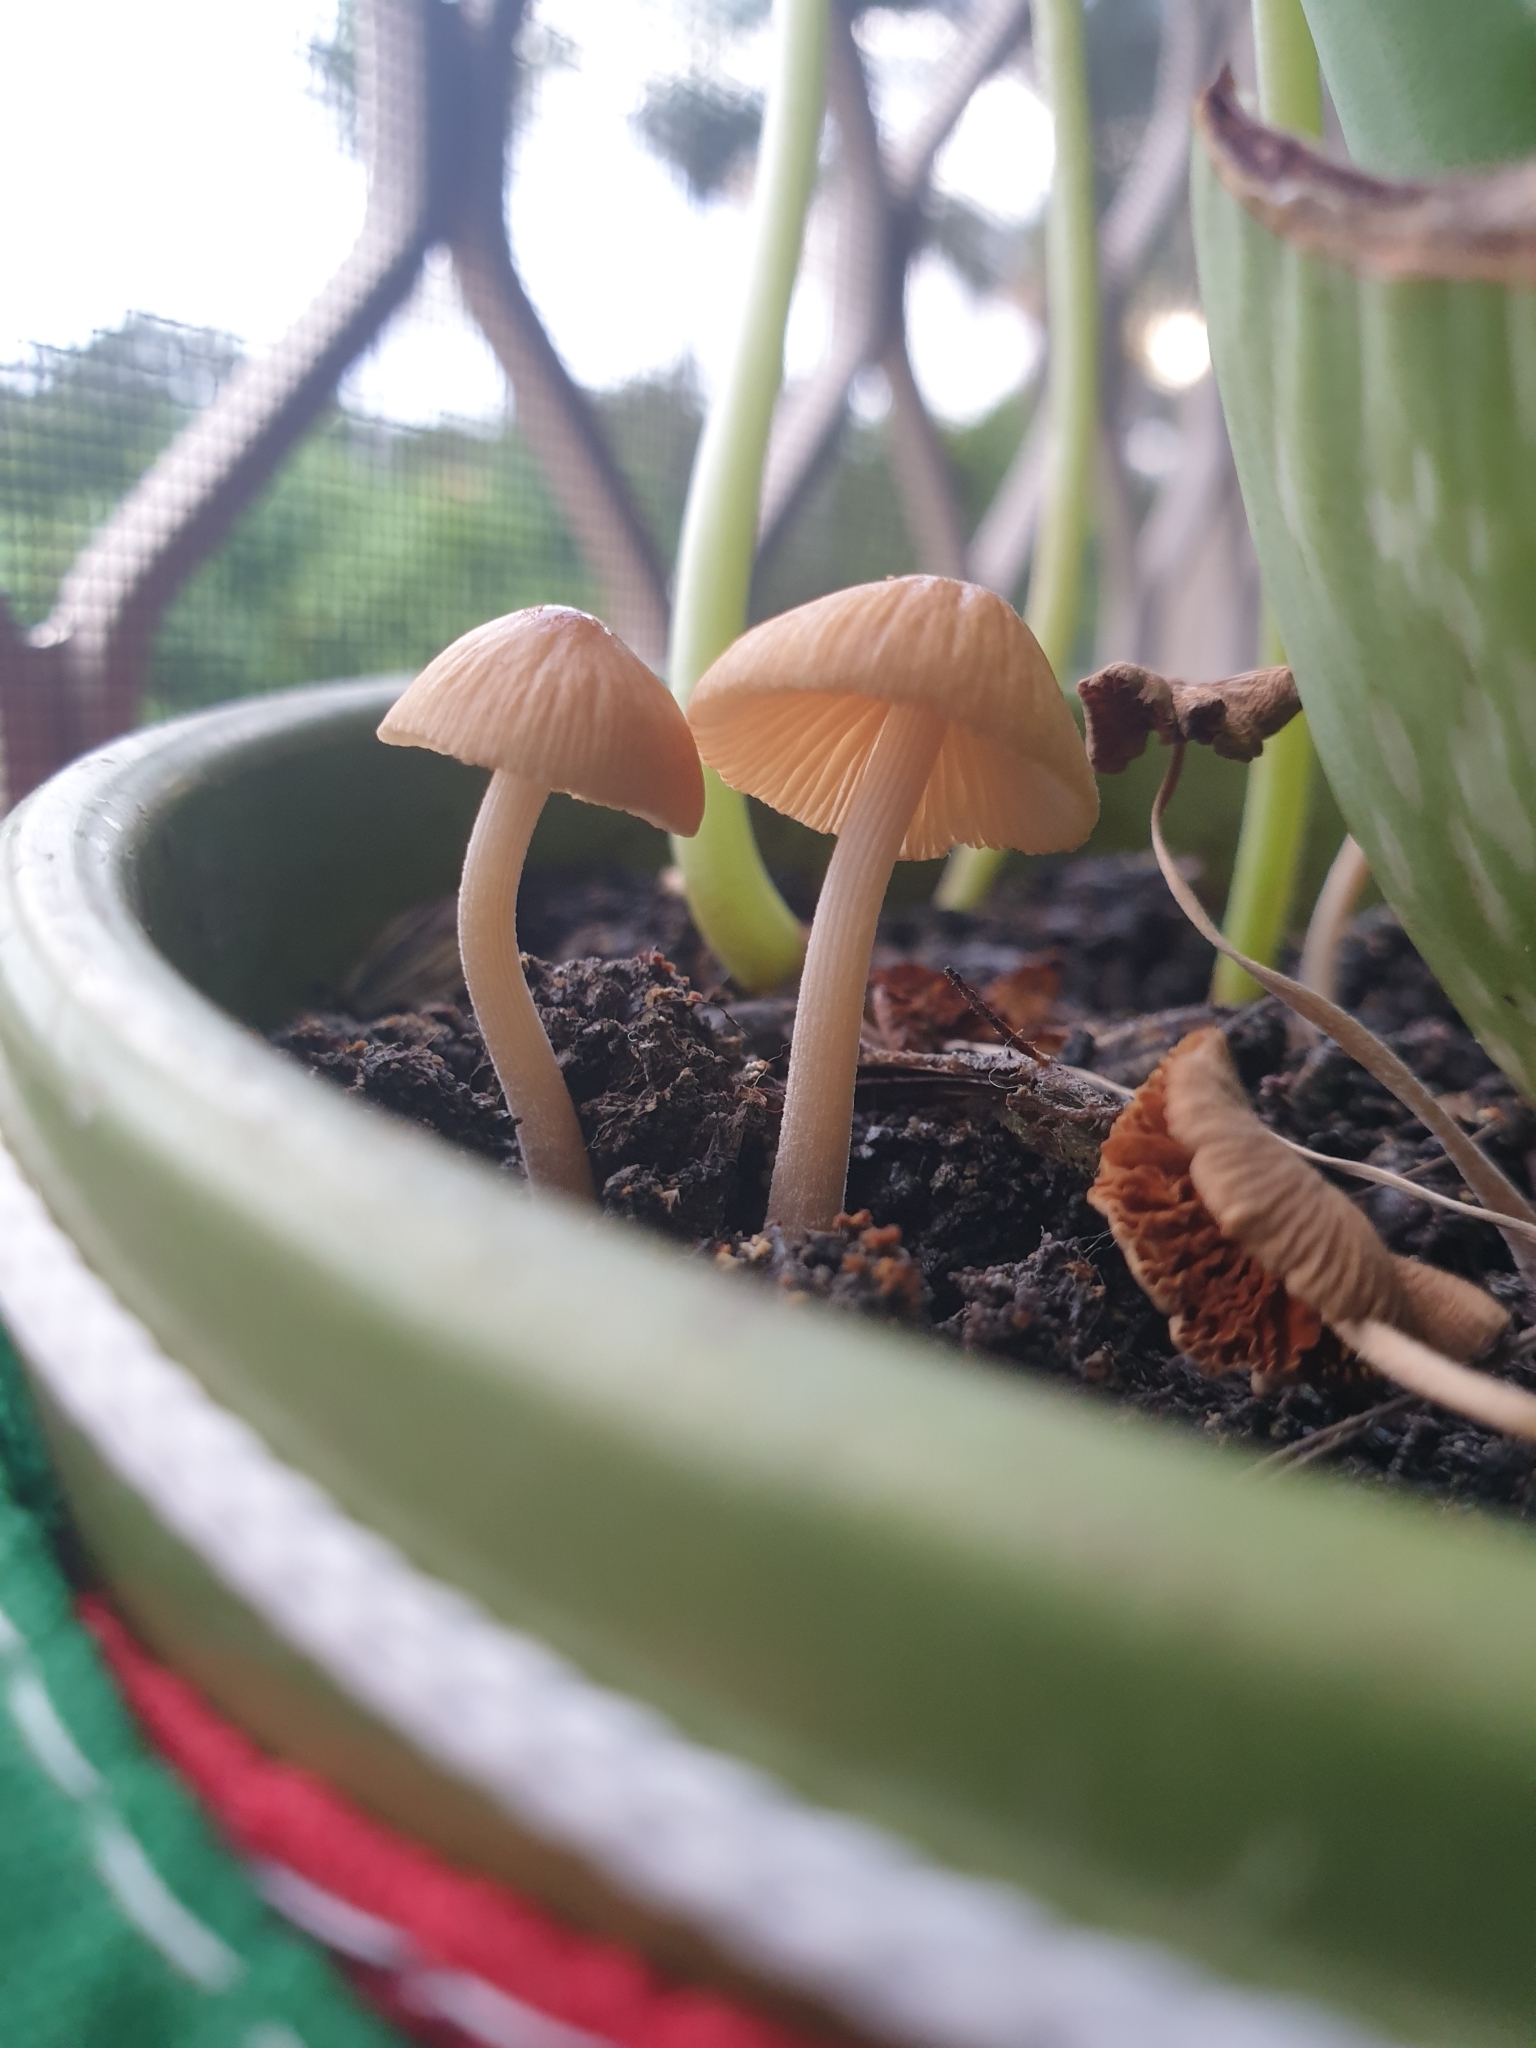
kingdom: Fungi
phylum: Basidiomycota
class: Agaricomycetes
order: Agaricales
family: Psathyrellaceae
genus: Parasola
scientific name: Parasola plicatilis
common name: Pleated inkcap
